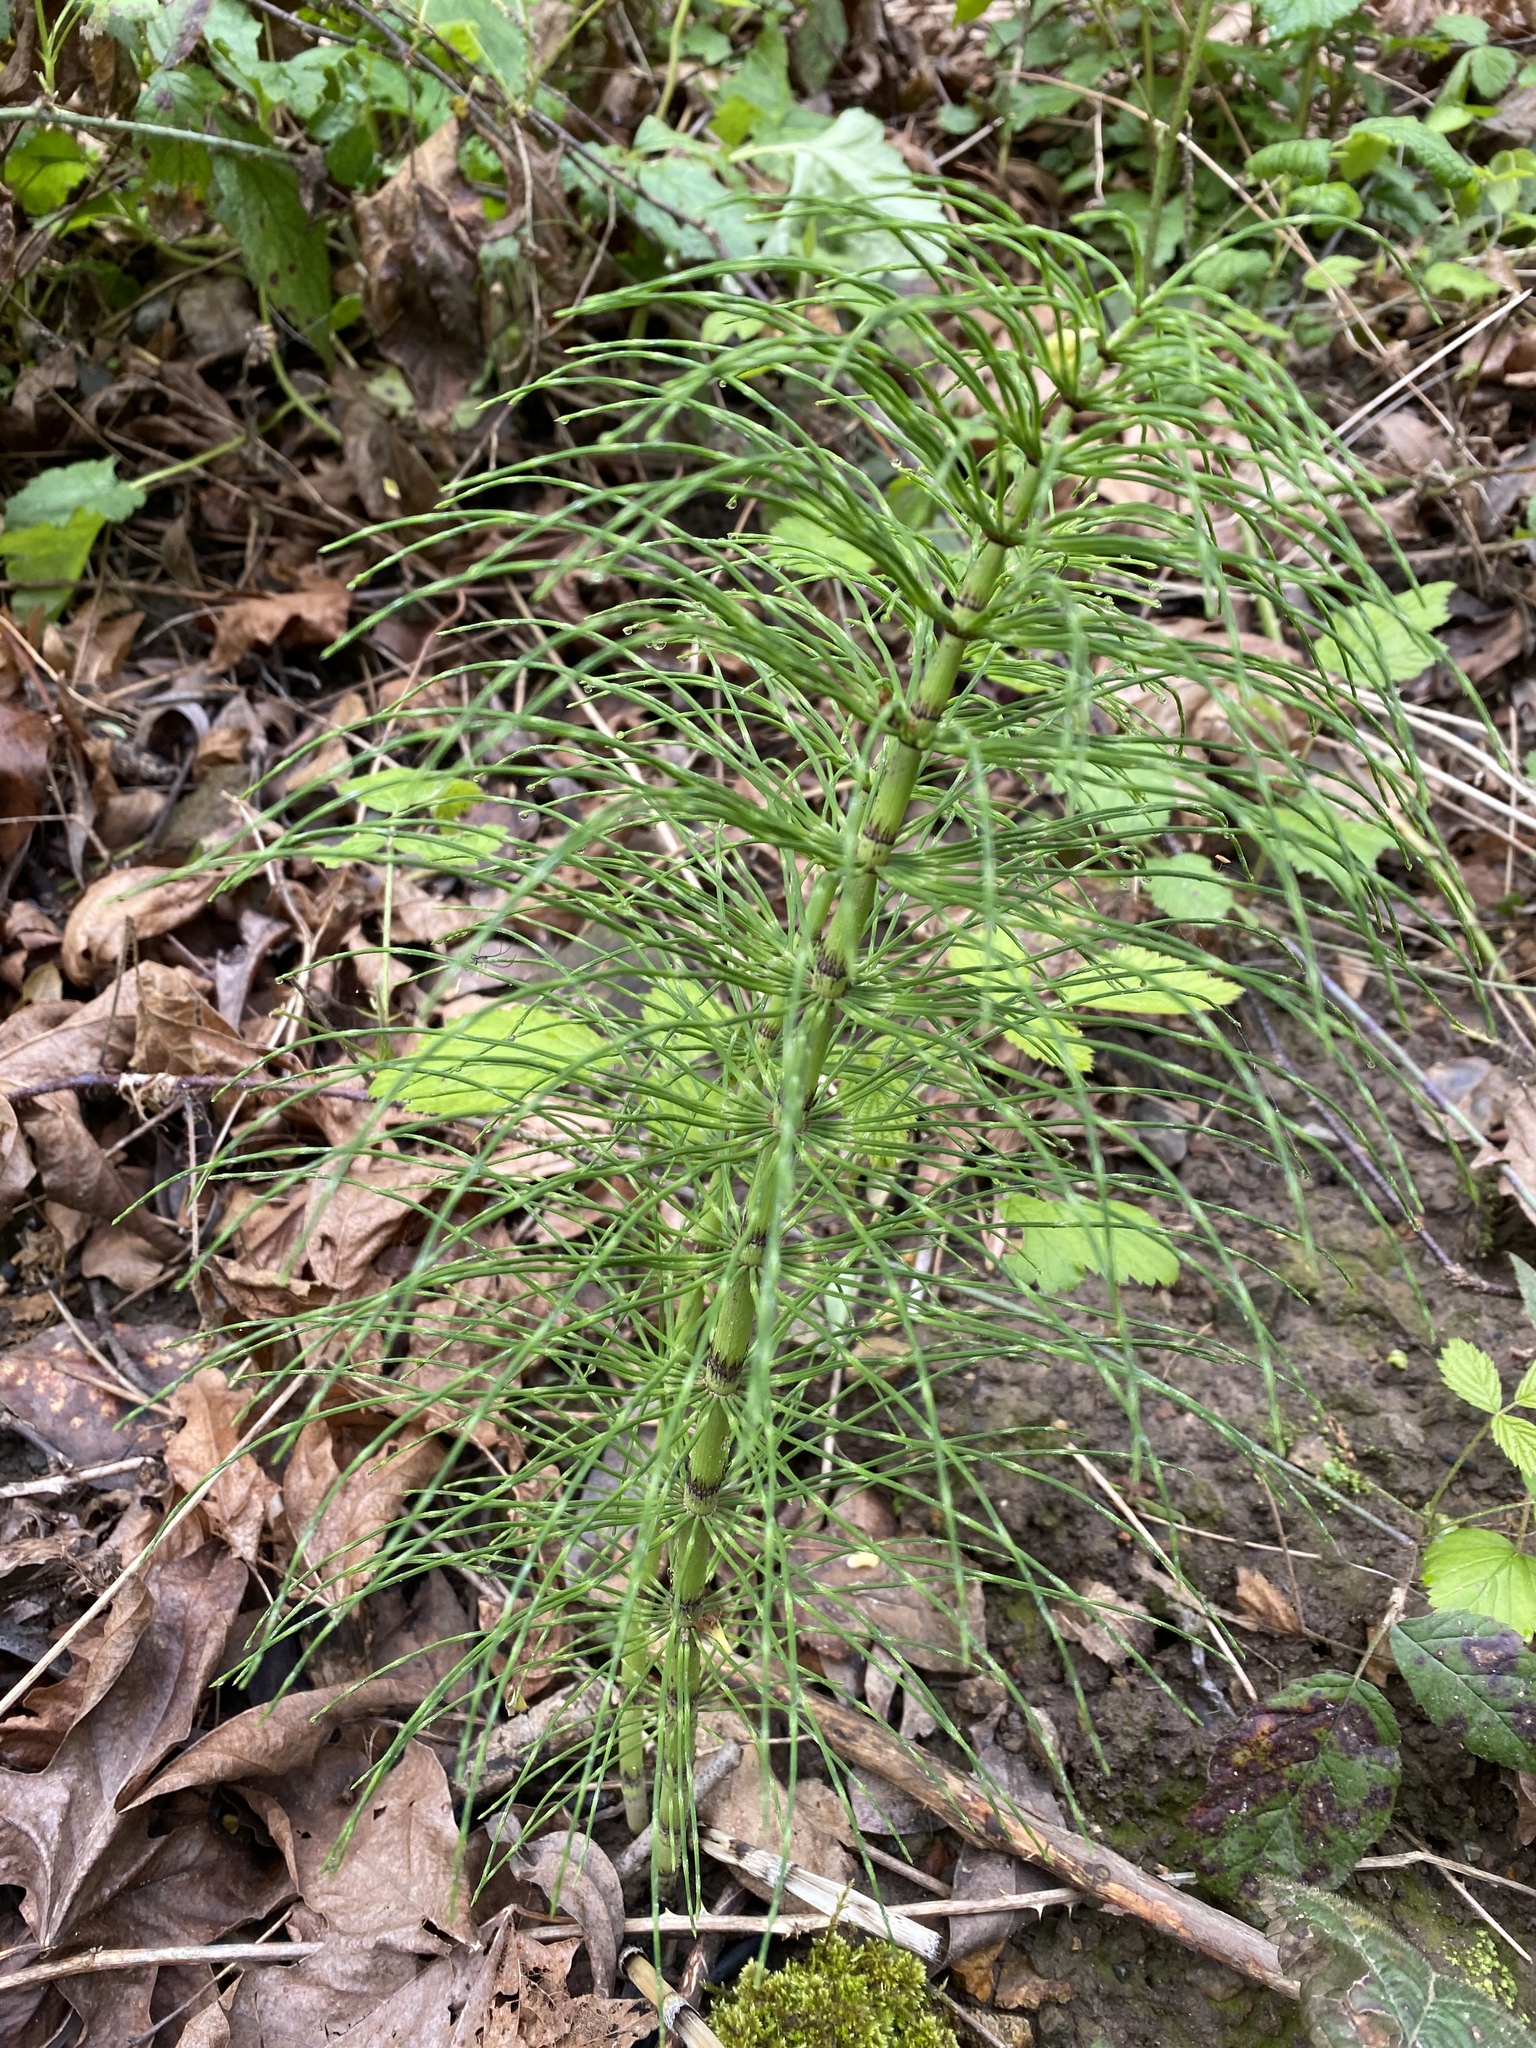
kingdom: Plantae
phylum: Tracheophyta
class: Polypodiopsida
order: Equisetales
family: Equisetaceae
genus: Equisetum
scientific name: Equisetum telmateia
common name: Great horsetail
